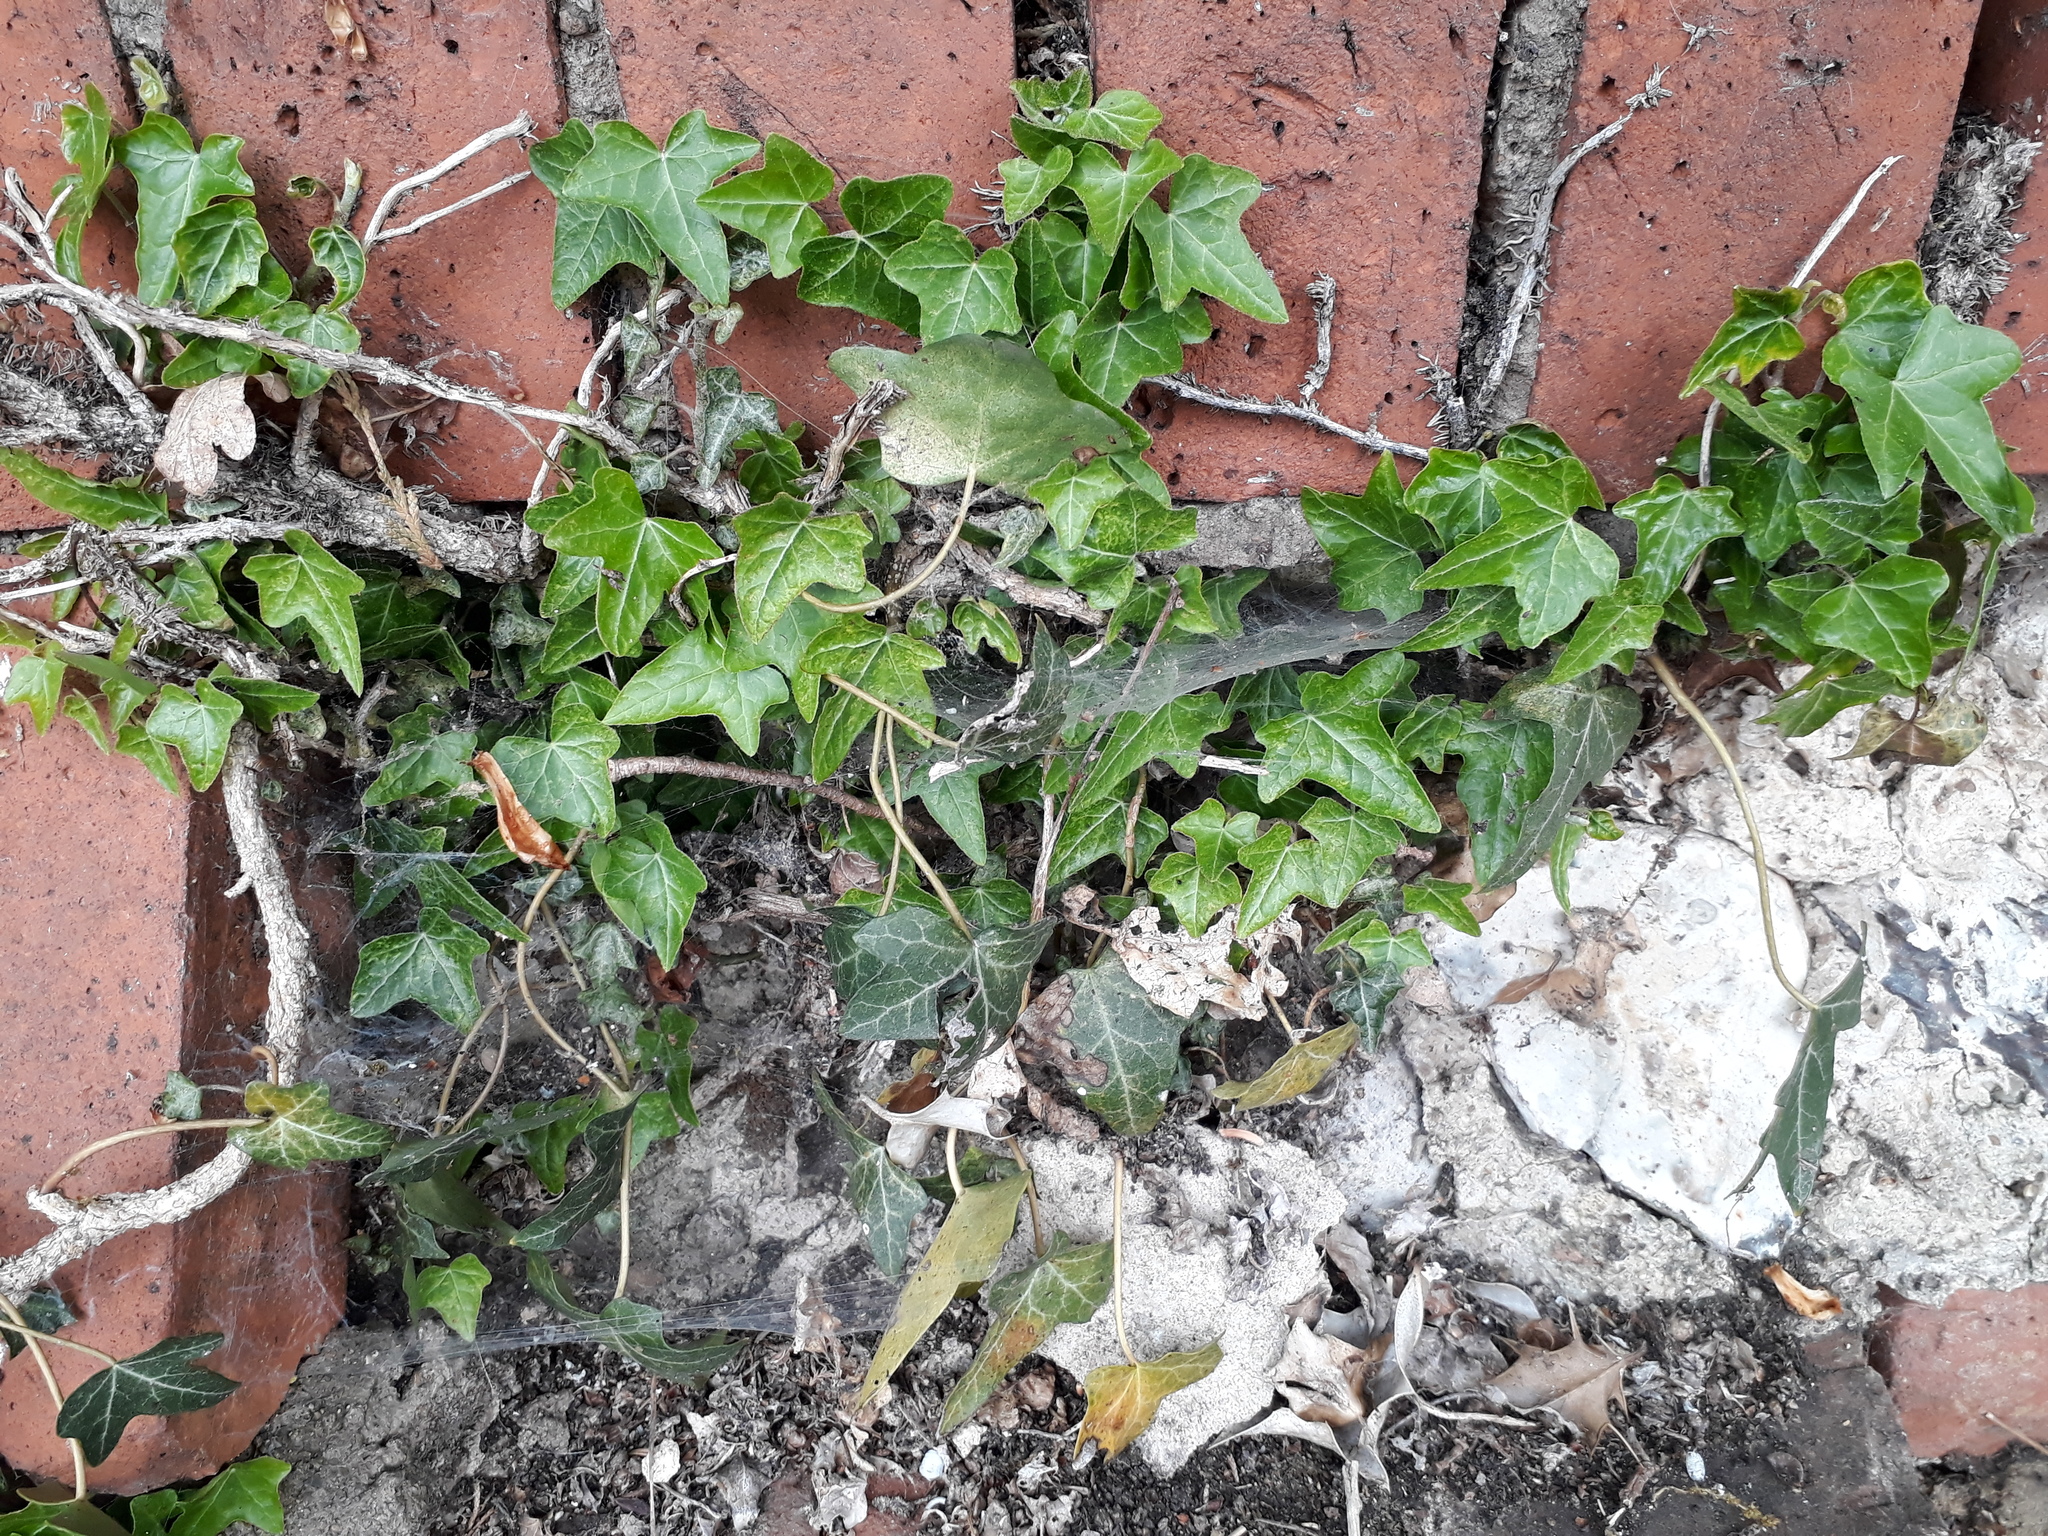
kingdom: Plantae
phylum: Tracheophyta
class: Magnoliopsida
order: Apiales
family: Araliaceae
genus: Hedera
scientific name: Hedera helix
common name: Ivy
